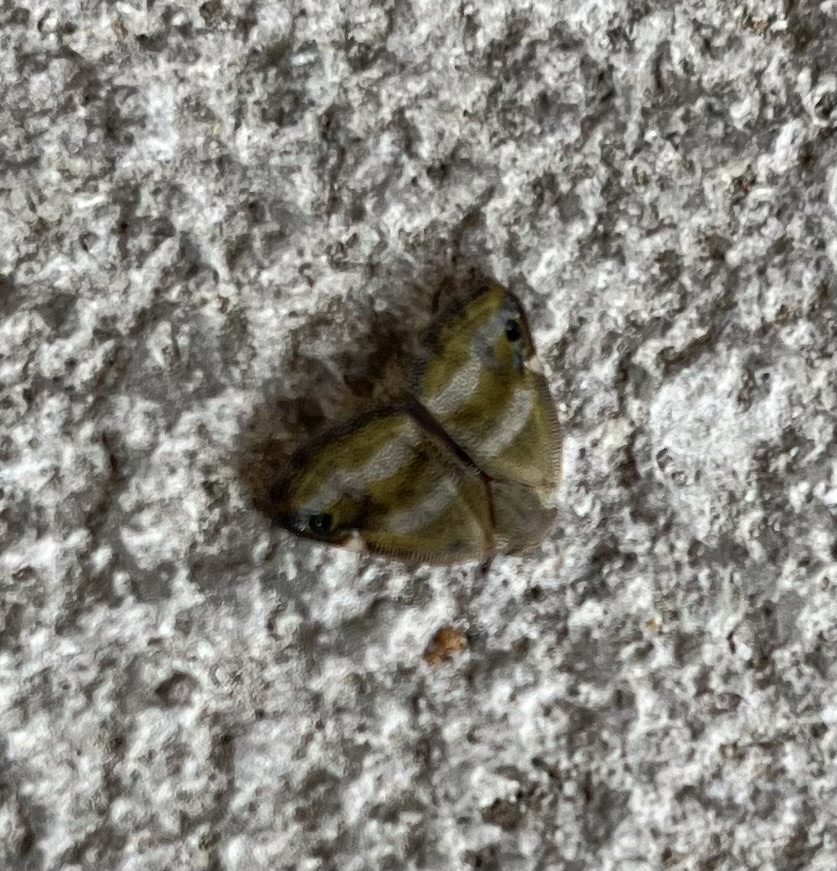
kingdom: Animalia
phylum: Arthropoda
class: Insecta
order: Hemiptera
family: Ricaniidae
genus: Ricania
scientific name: Ricania simulans
